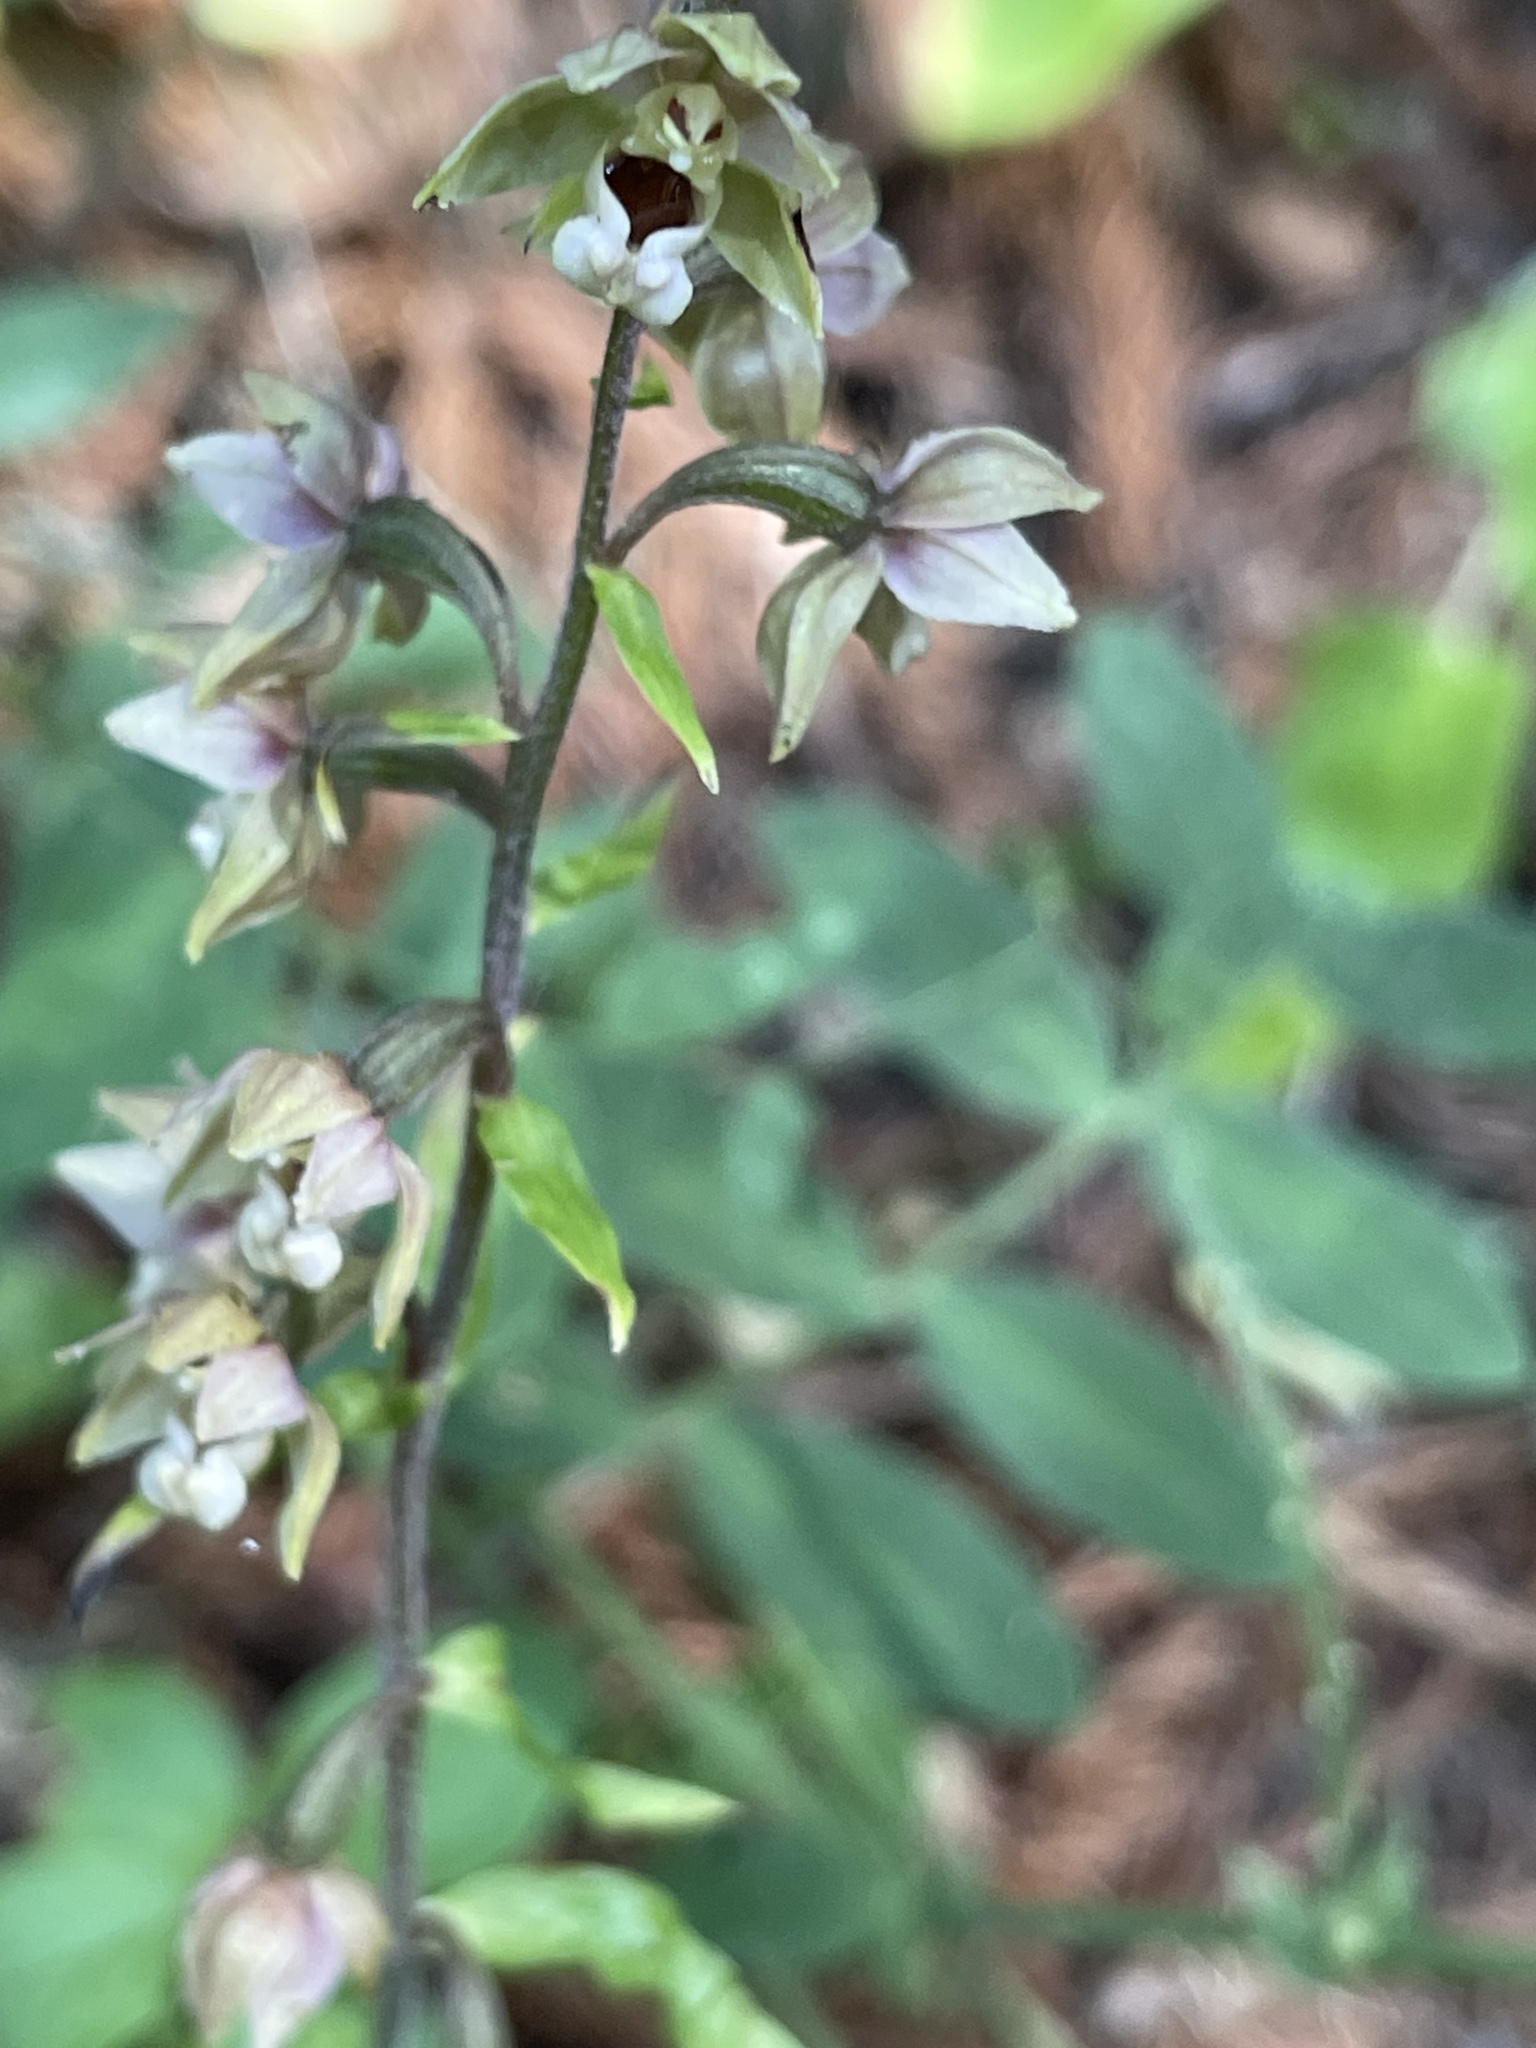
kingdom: Plantae
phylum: Tracheophyta
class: Liliopsida
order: Asparagales
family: Orchidaceae
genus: Epipactis
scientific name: Epipactis helleborine
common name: Broad-leaved helleborine
